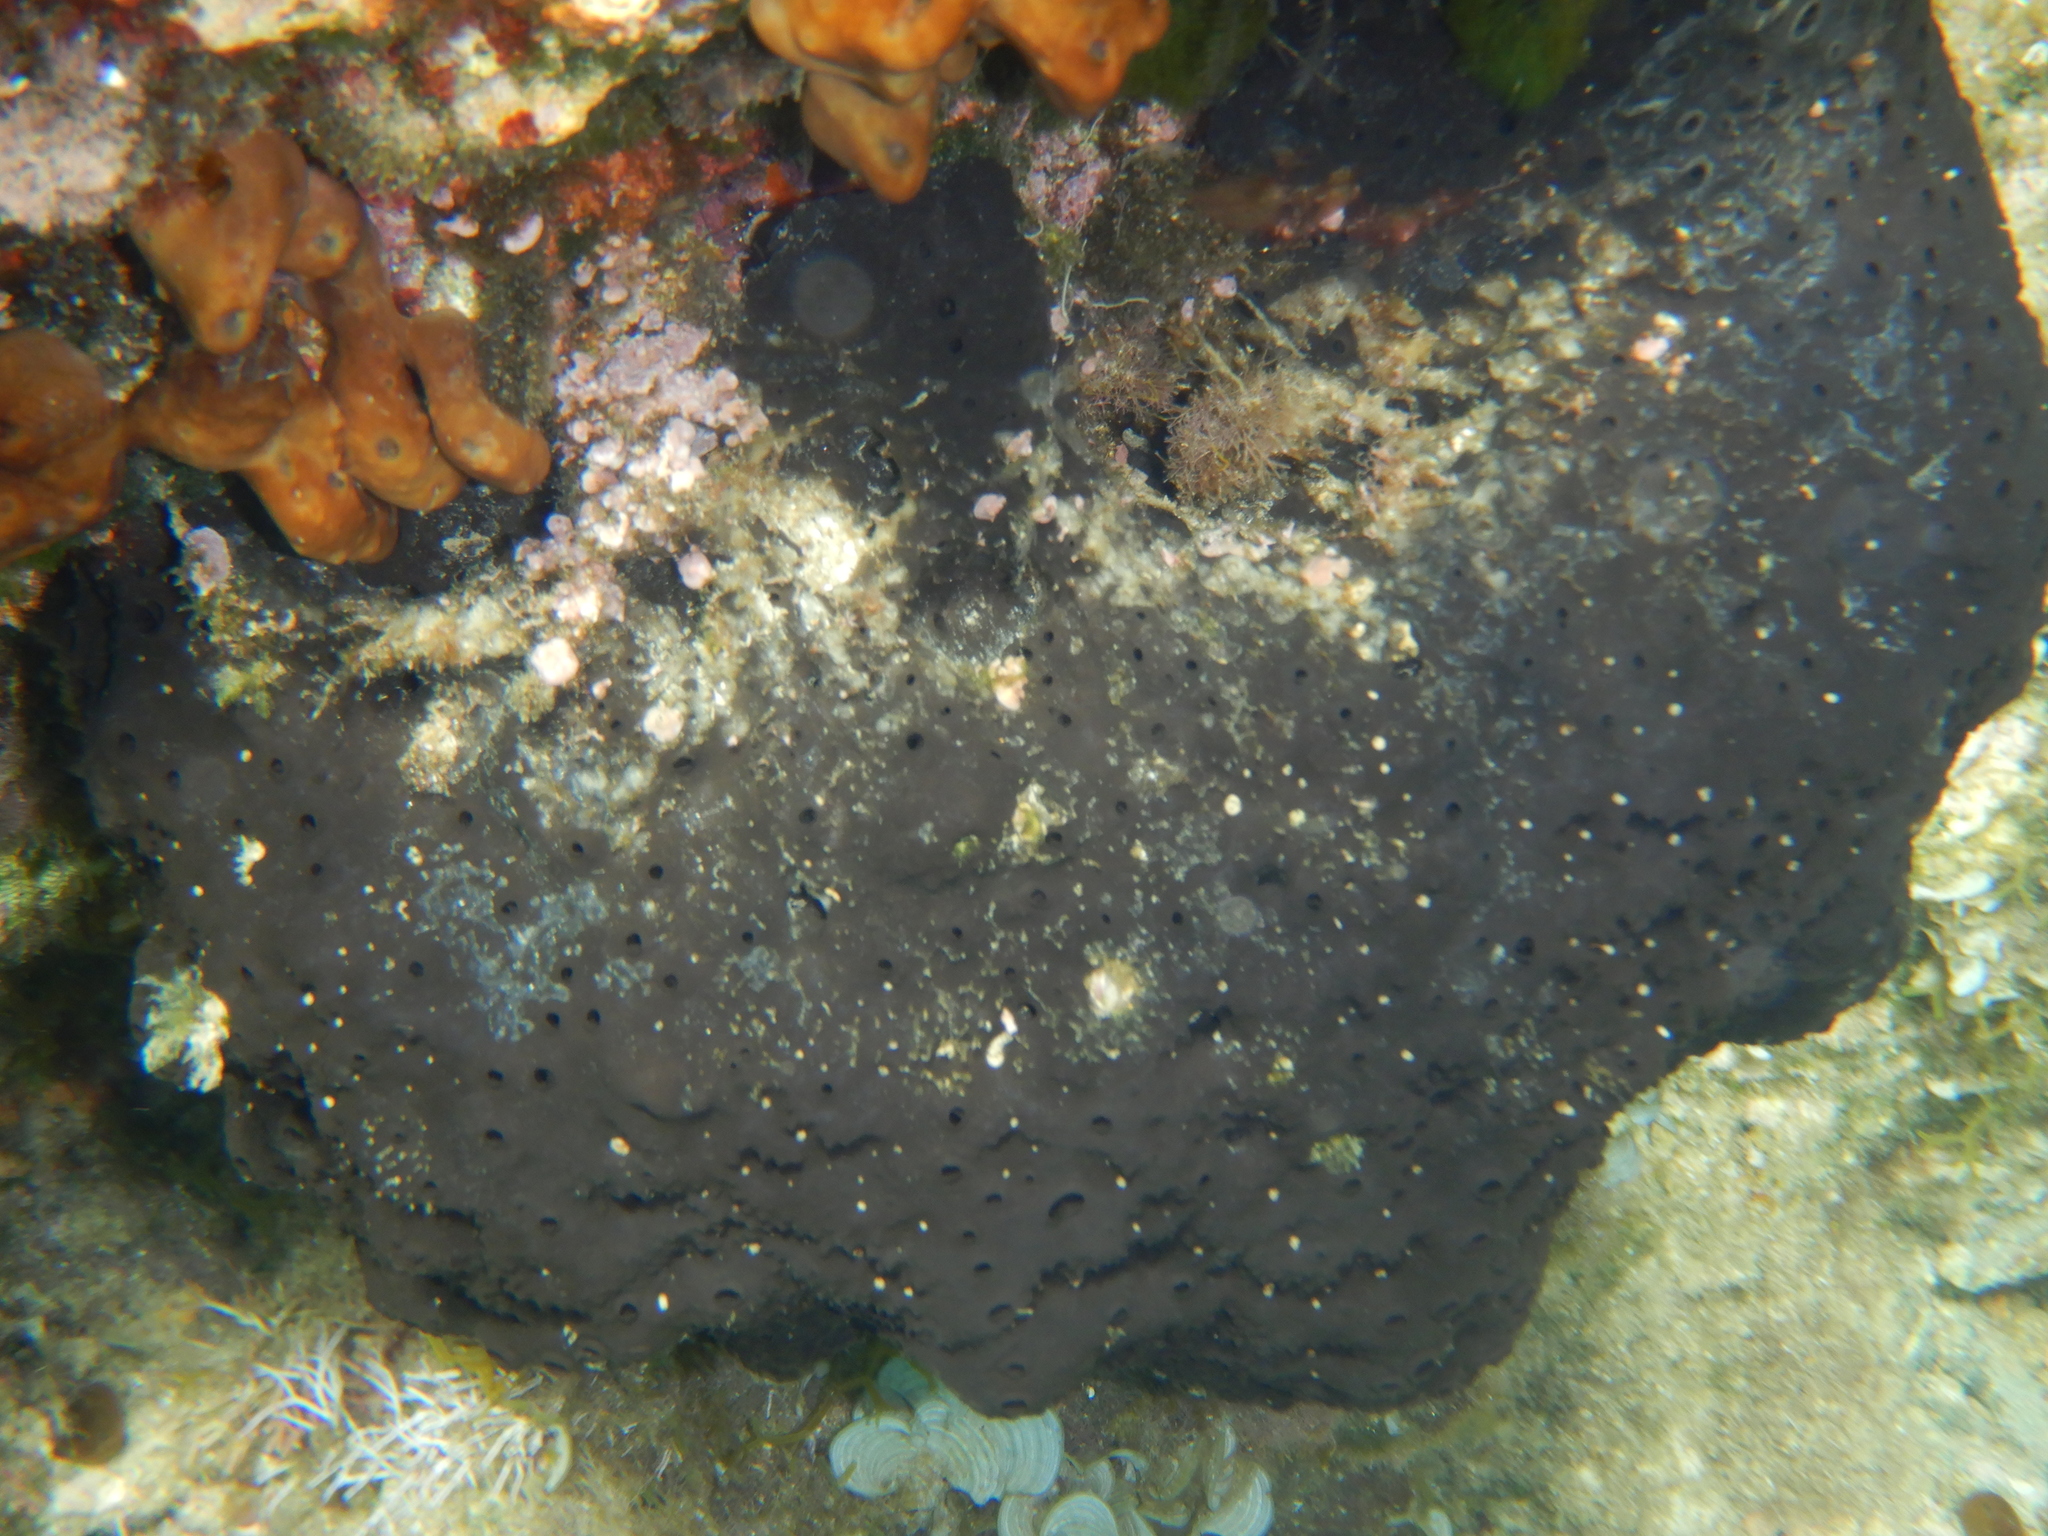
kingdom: Animalia
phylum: Porifera
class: Demospongiae
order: Dictyoceratida
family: Irciniidae
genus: Sarcotragus
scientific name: Sarcotragus spinosulus
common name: Black leather sponge
